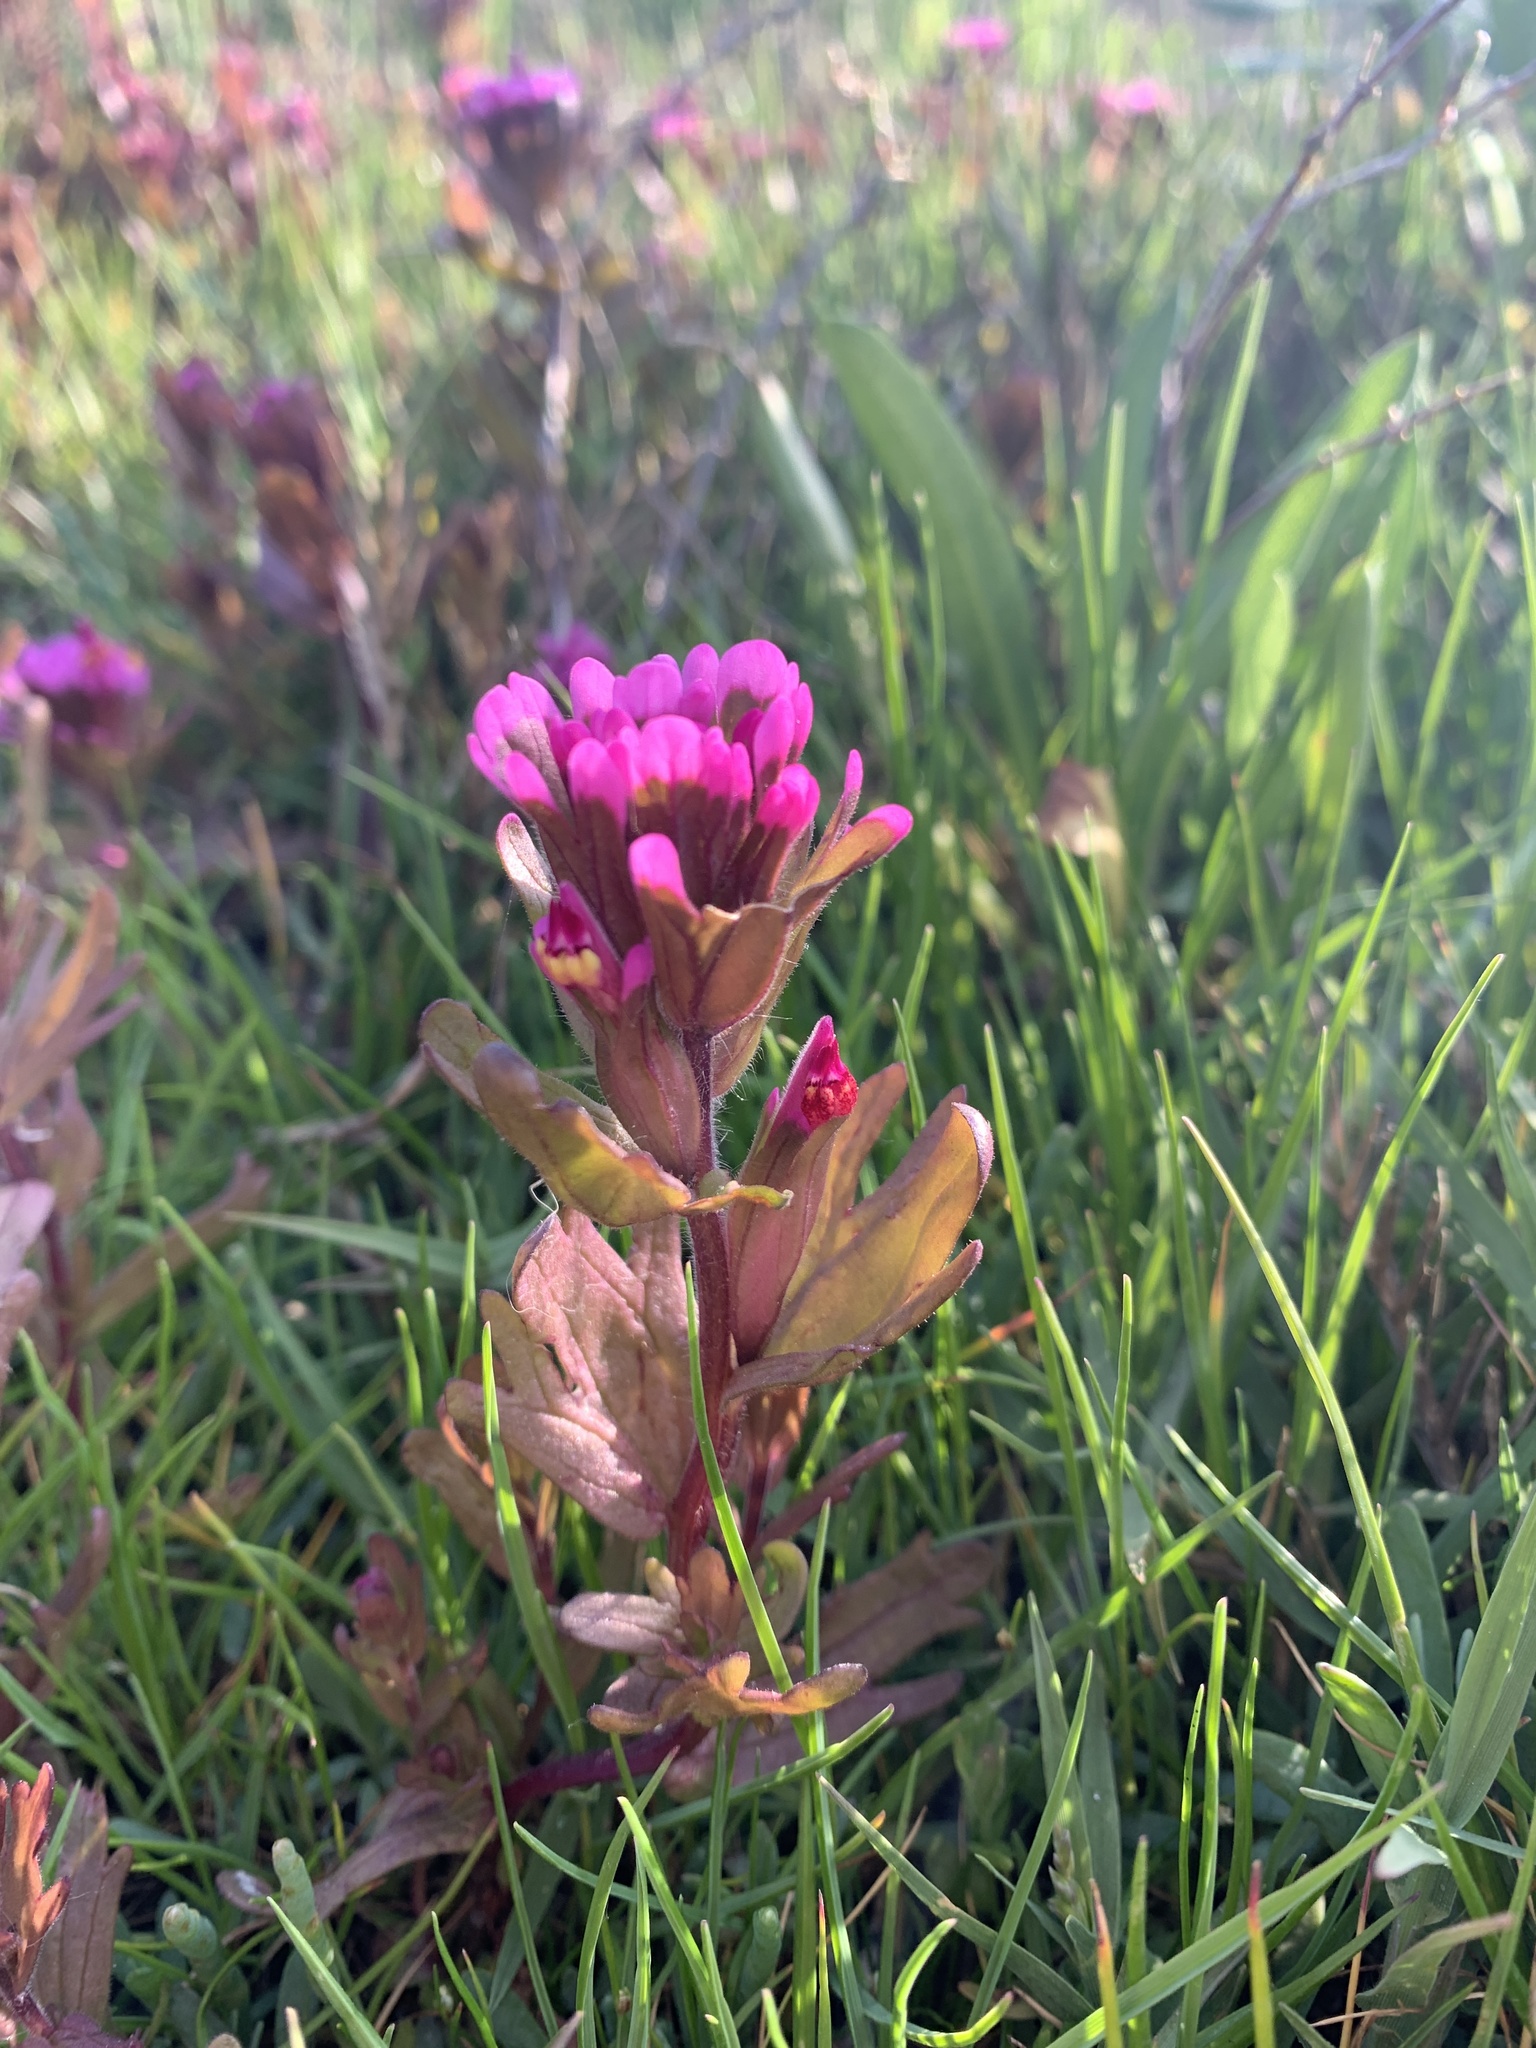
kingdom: Plantae
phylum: Tracheophyta
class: Magnoliopsida
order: Lamiales
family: Orobanchaceae
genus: Castilleja
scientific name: Castilleja ambigua
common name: Johnny-nip
